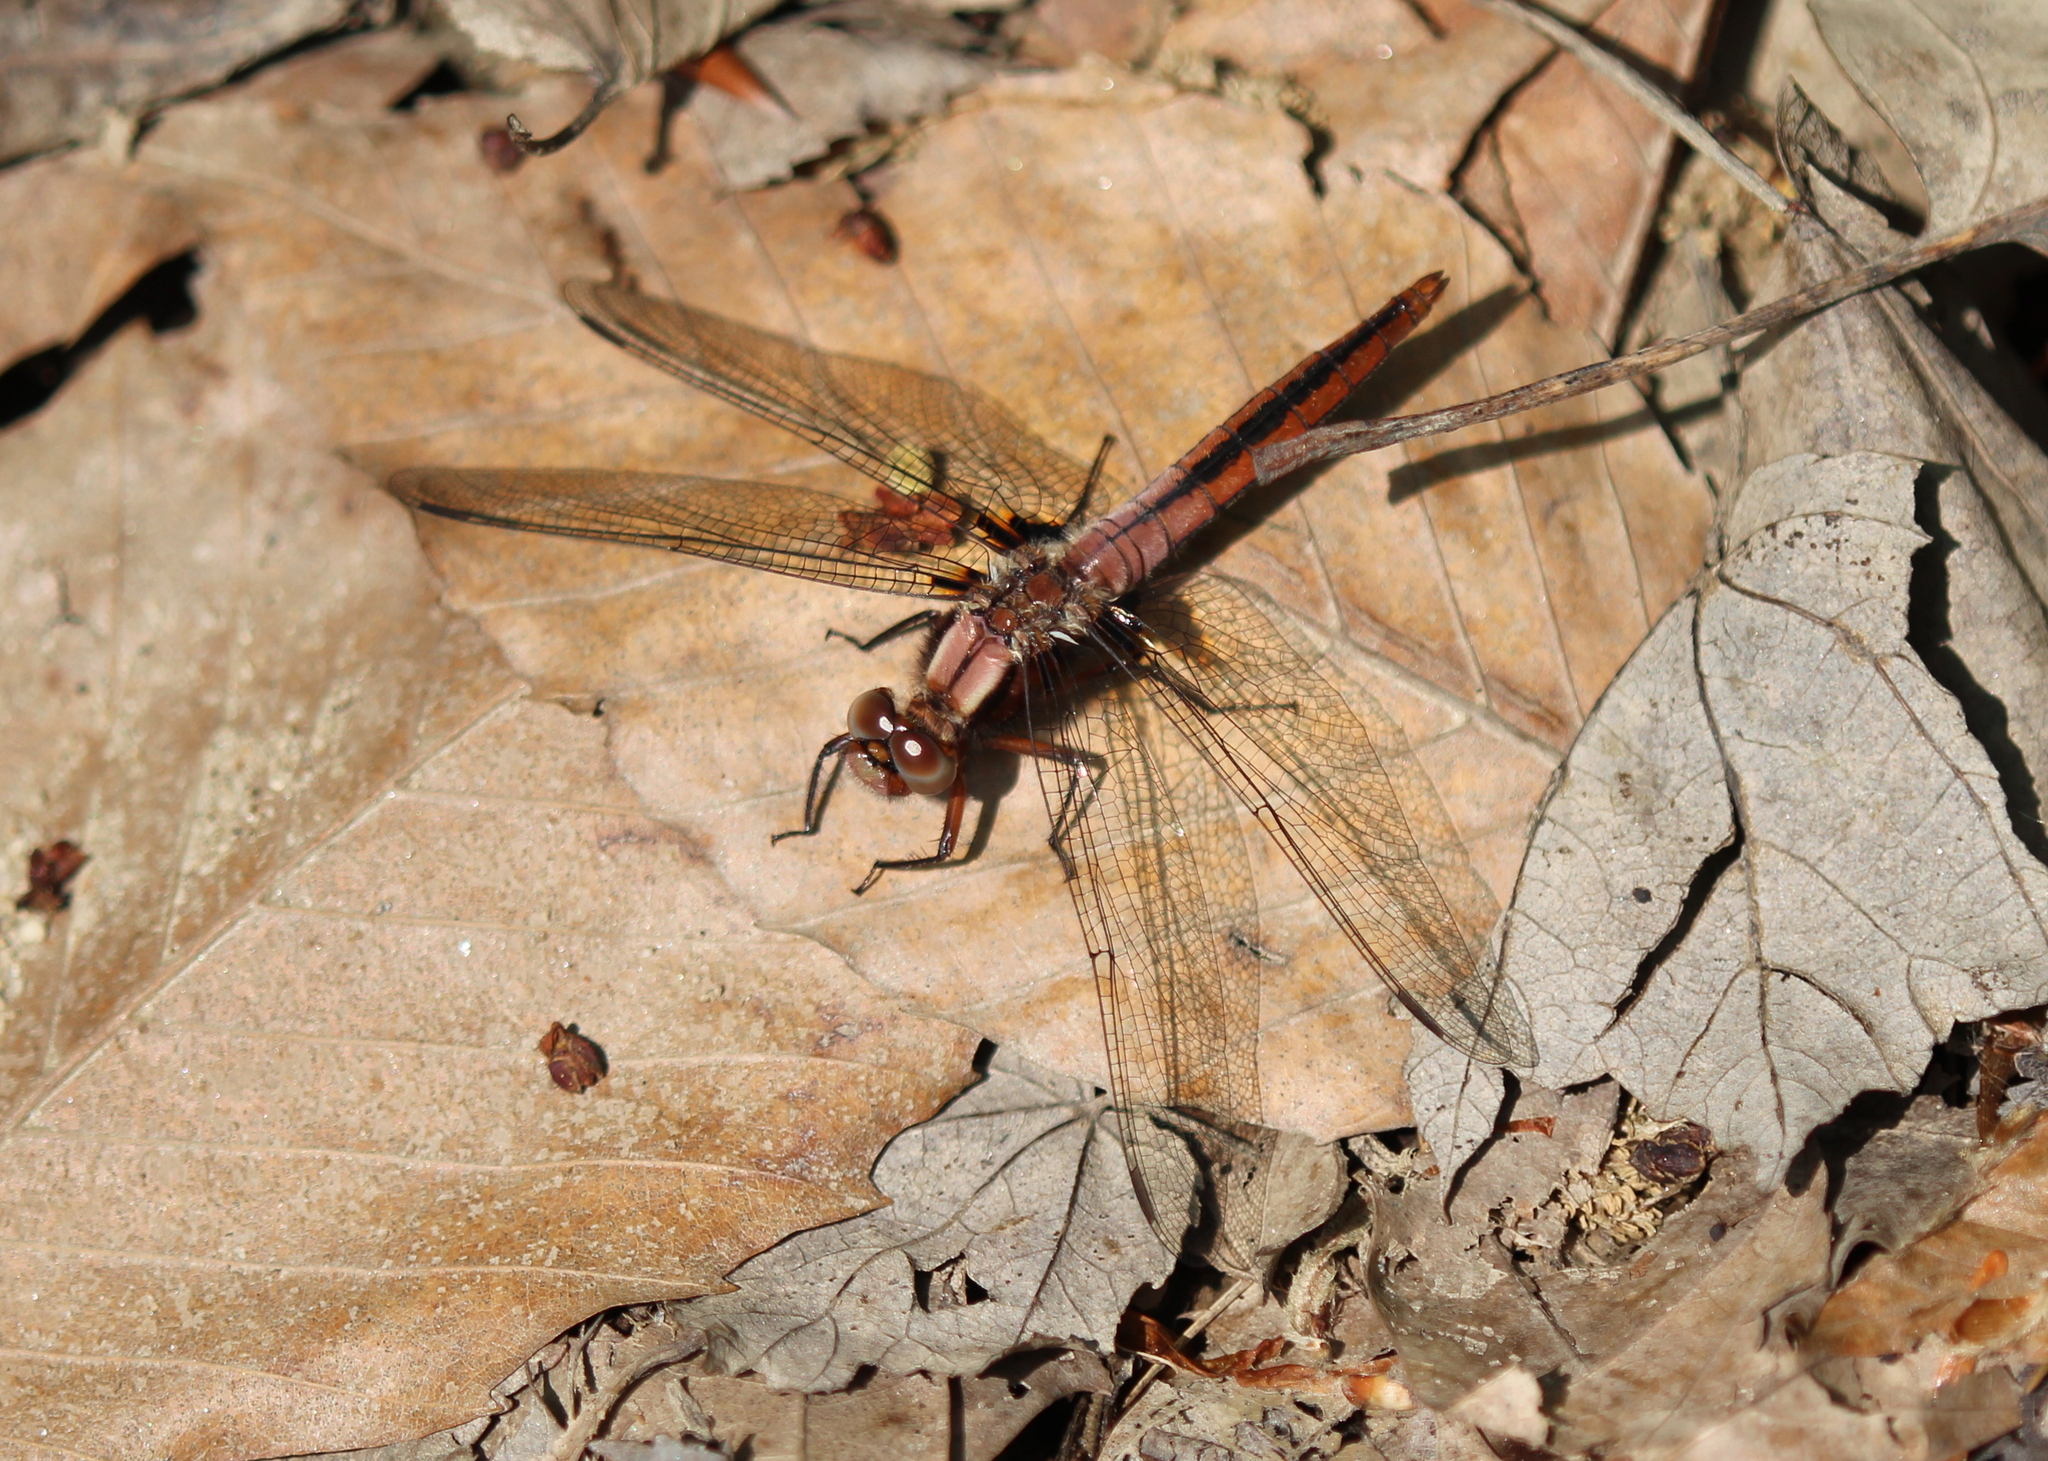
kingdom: Animalia
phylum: Arthropoda
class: Insecta
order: Odonata
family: Libellulidae
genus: Ladona
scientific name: Ladona julia
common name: Chalk-fronted corporal
